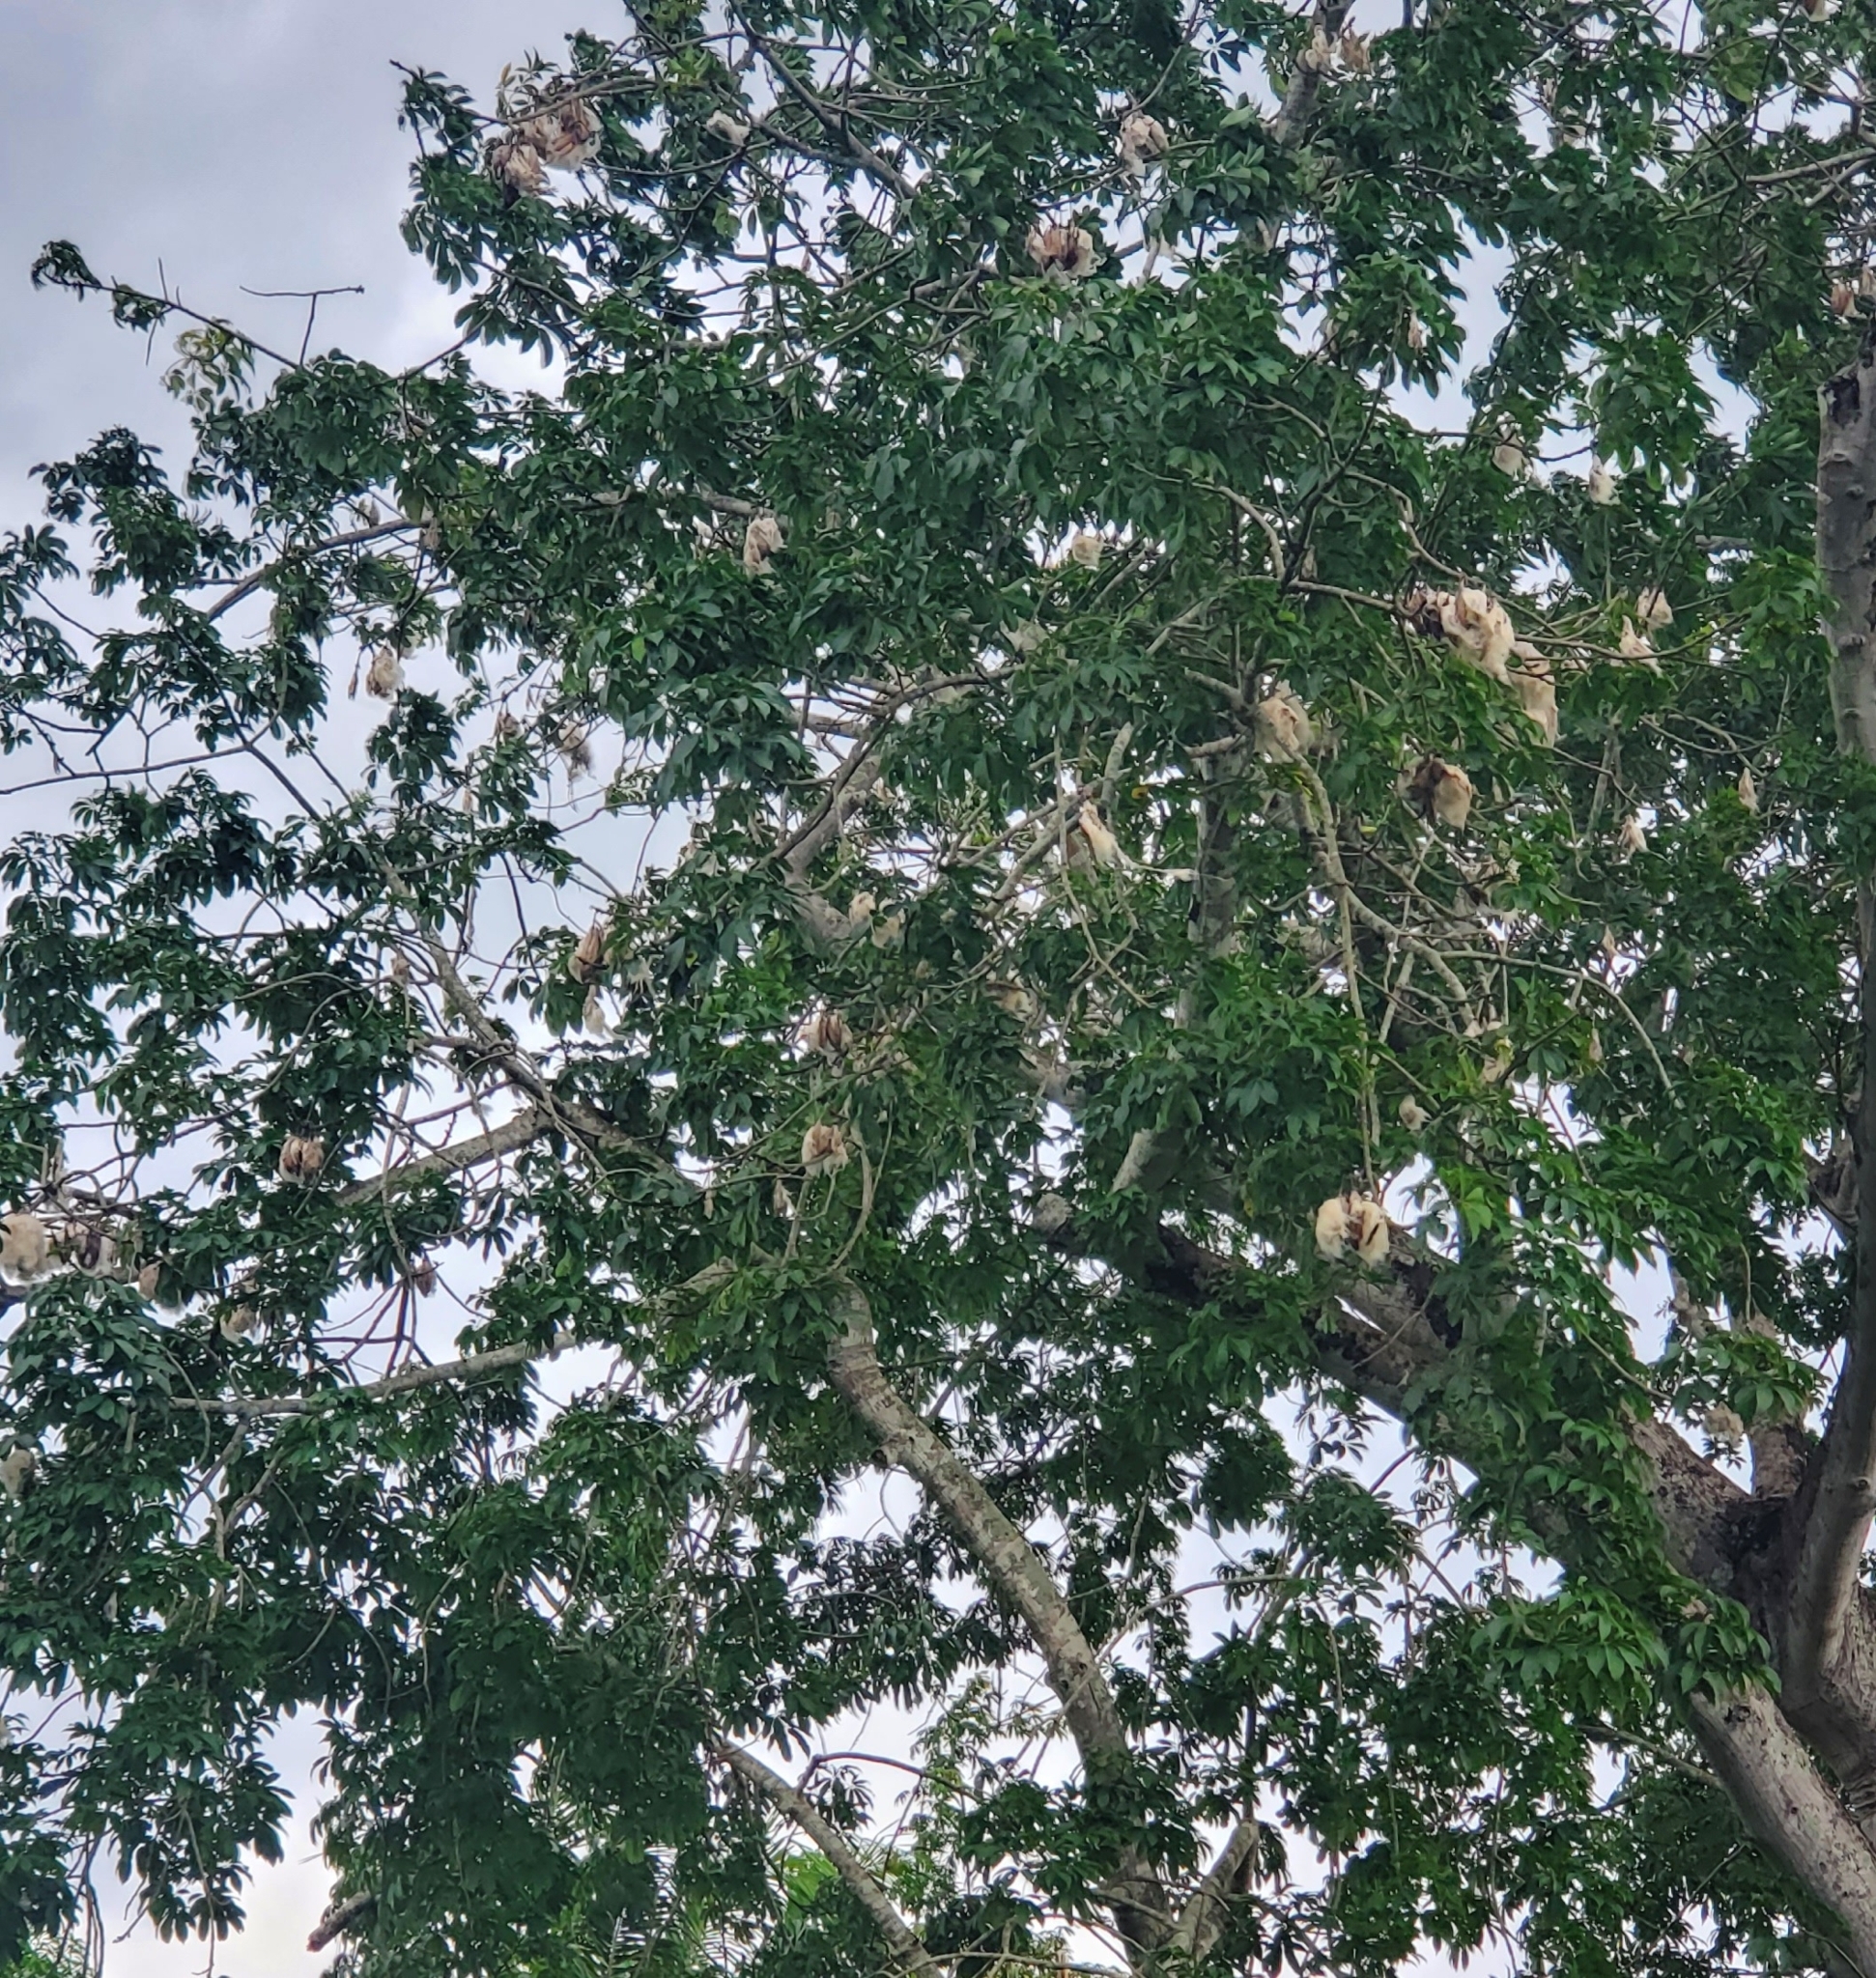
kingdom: Plantae
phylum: Tracheophyta
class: Magnoliopsida
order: Malvales
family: Malvaceae
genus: Ceiba
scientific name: Ceiba pentandra
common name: Kapok
